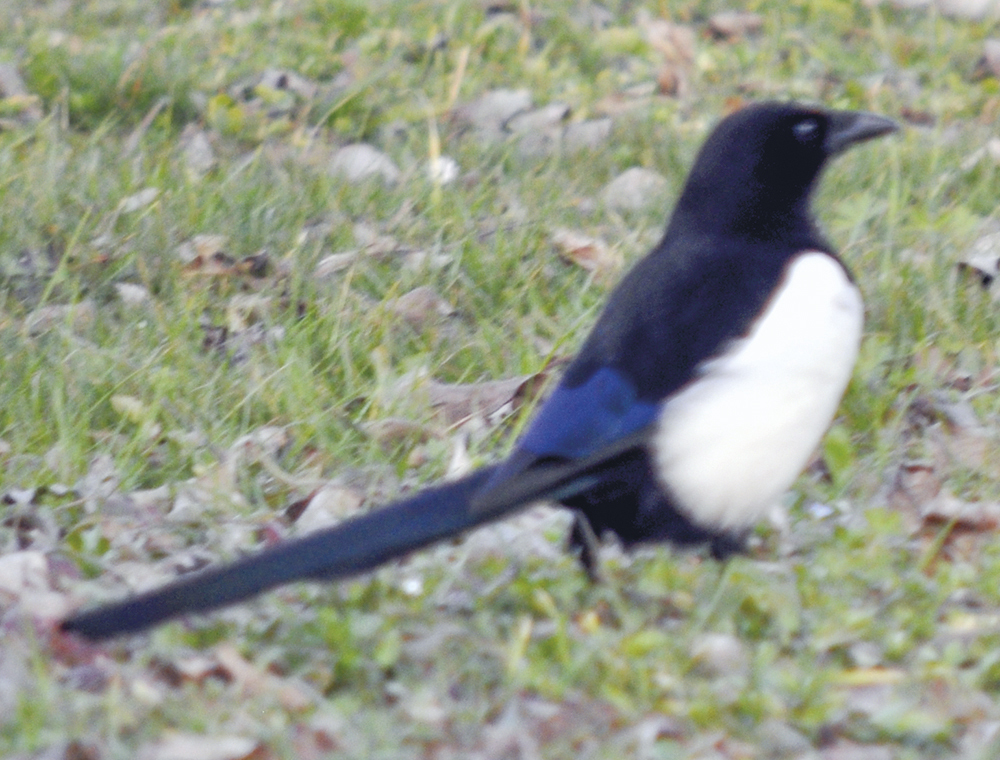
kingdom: Animalia
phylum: Chordata
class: Aves
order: Passeriformes
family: Corvidae
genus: Pica
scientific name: Pica pica
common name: Eurasian magpie
